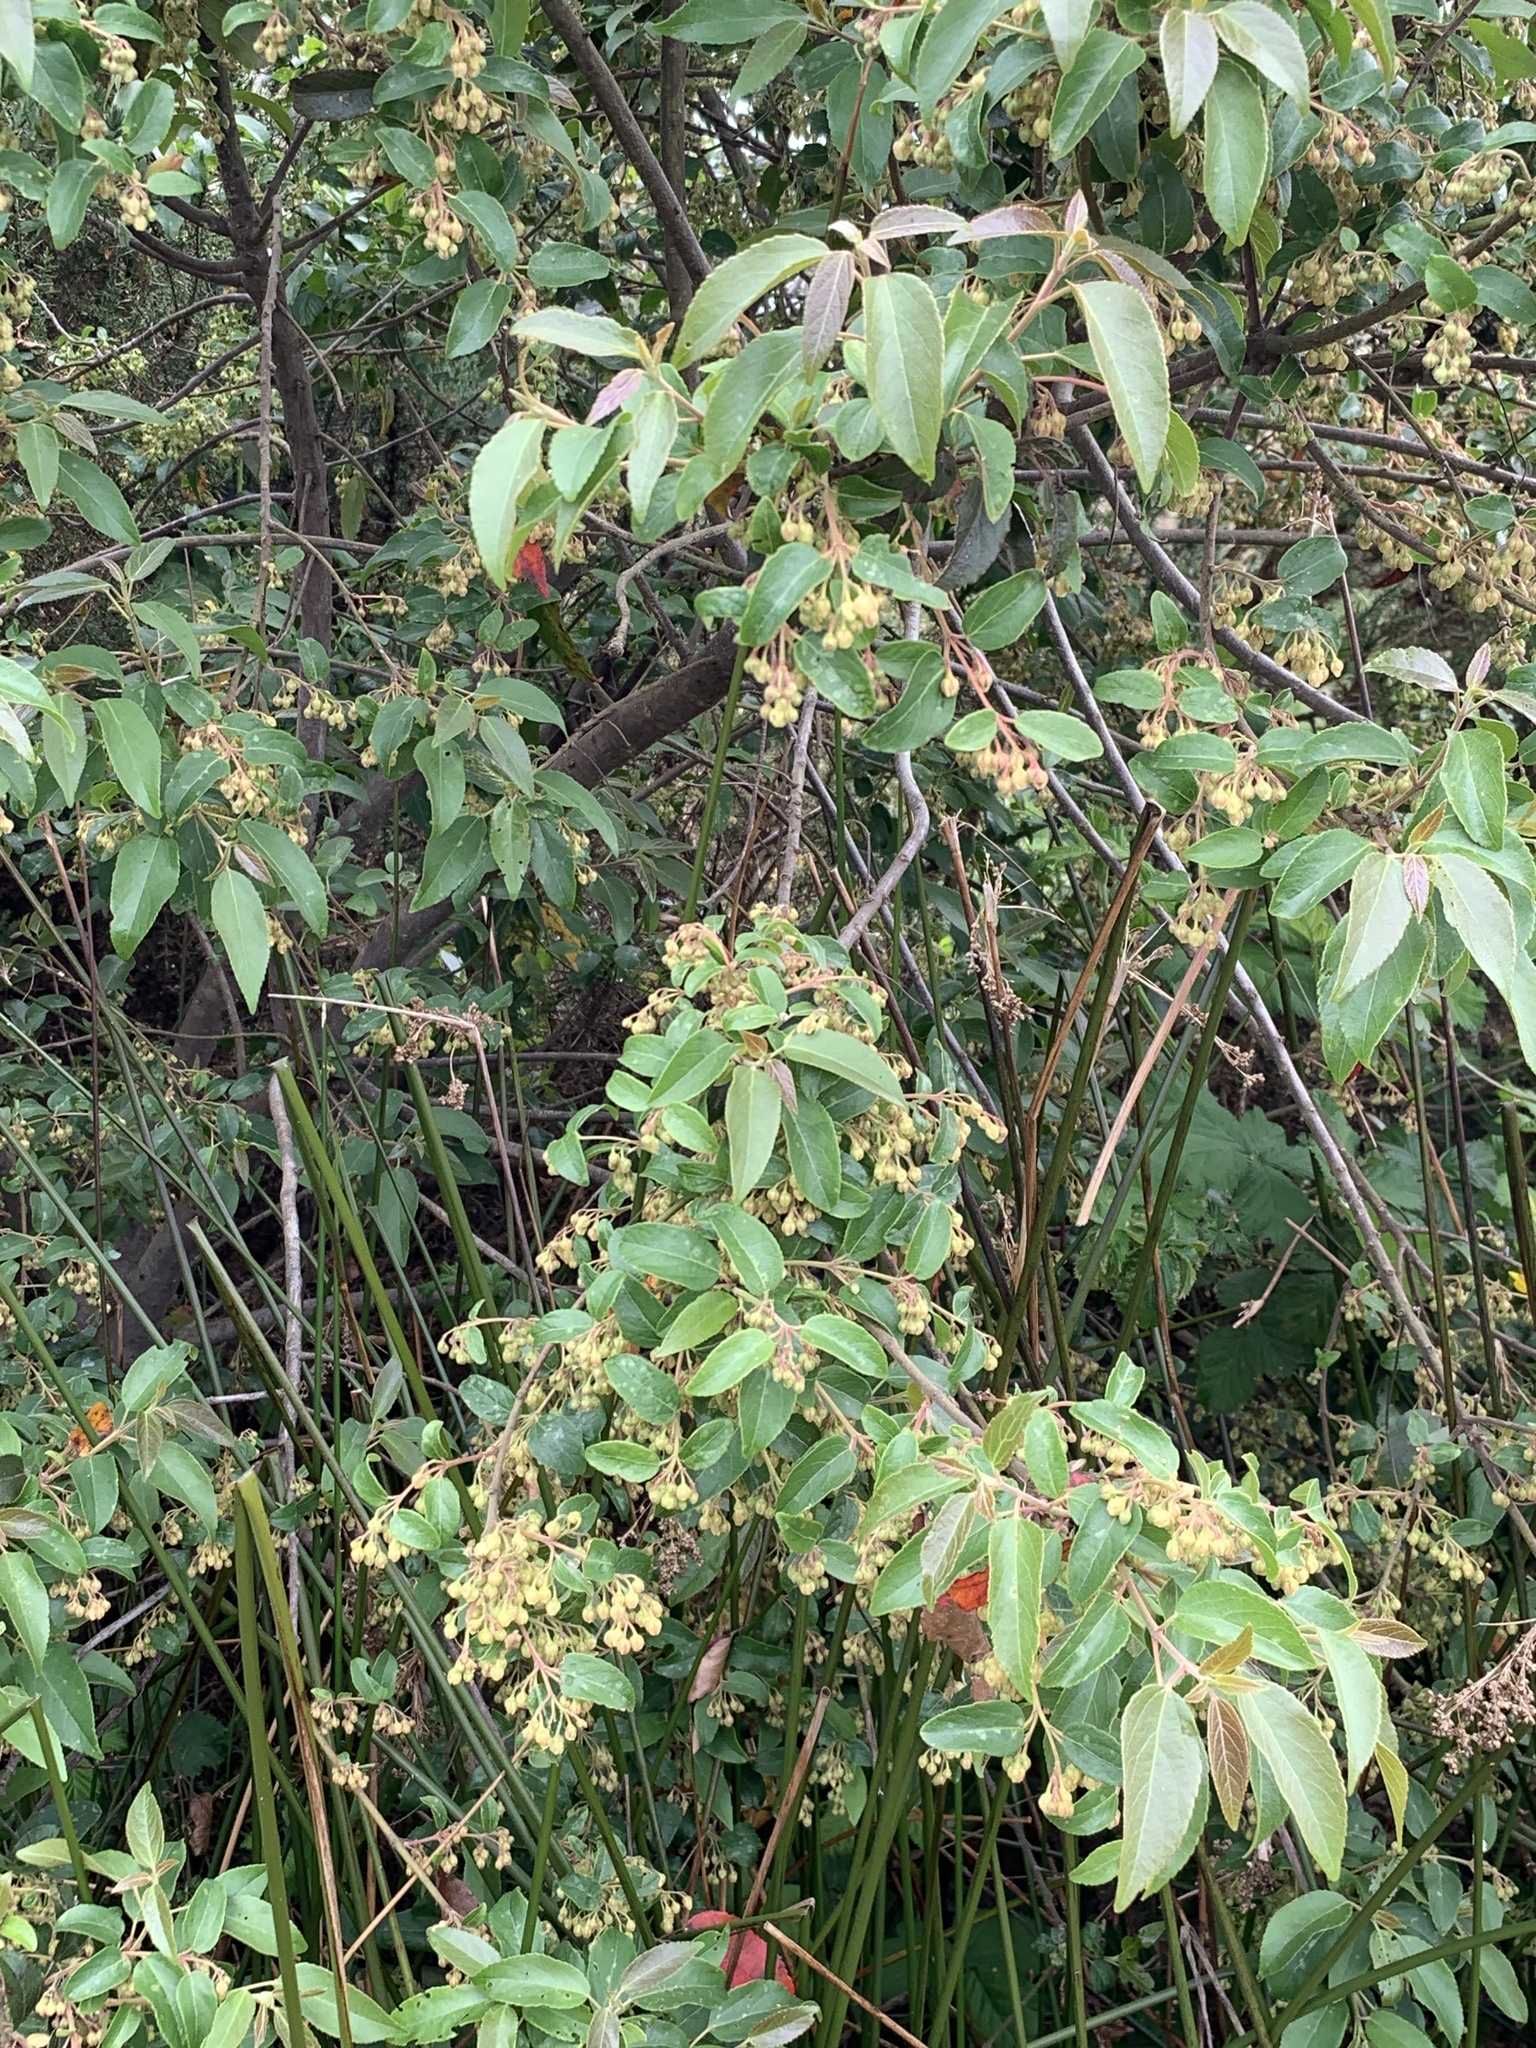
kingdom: Plantae
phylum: Tracheophyta
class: Magnoliopsida
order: Oxalidales
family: Elaeocarpaceae
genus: Aristotelia
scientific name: Aristotelia chilensis
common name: Maquei
